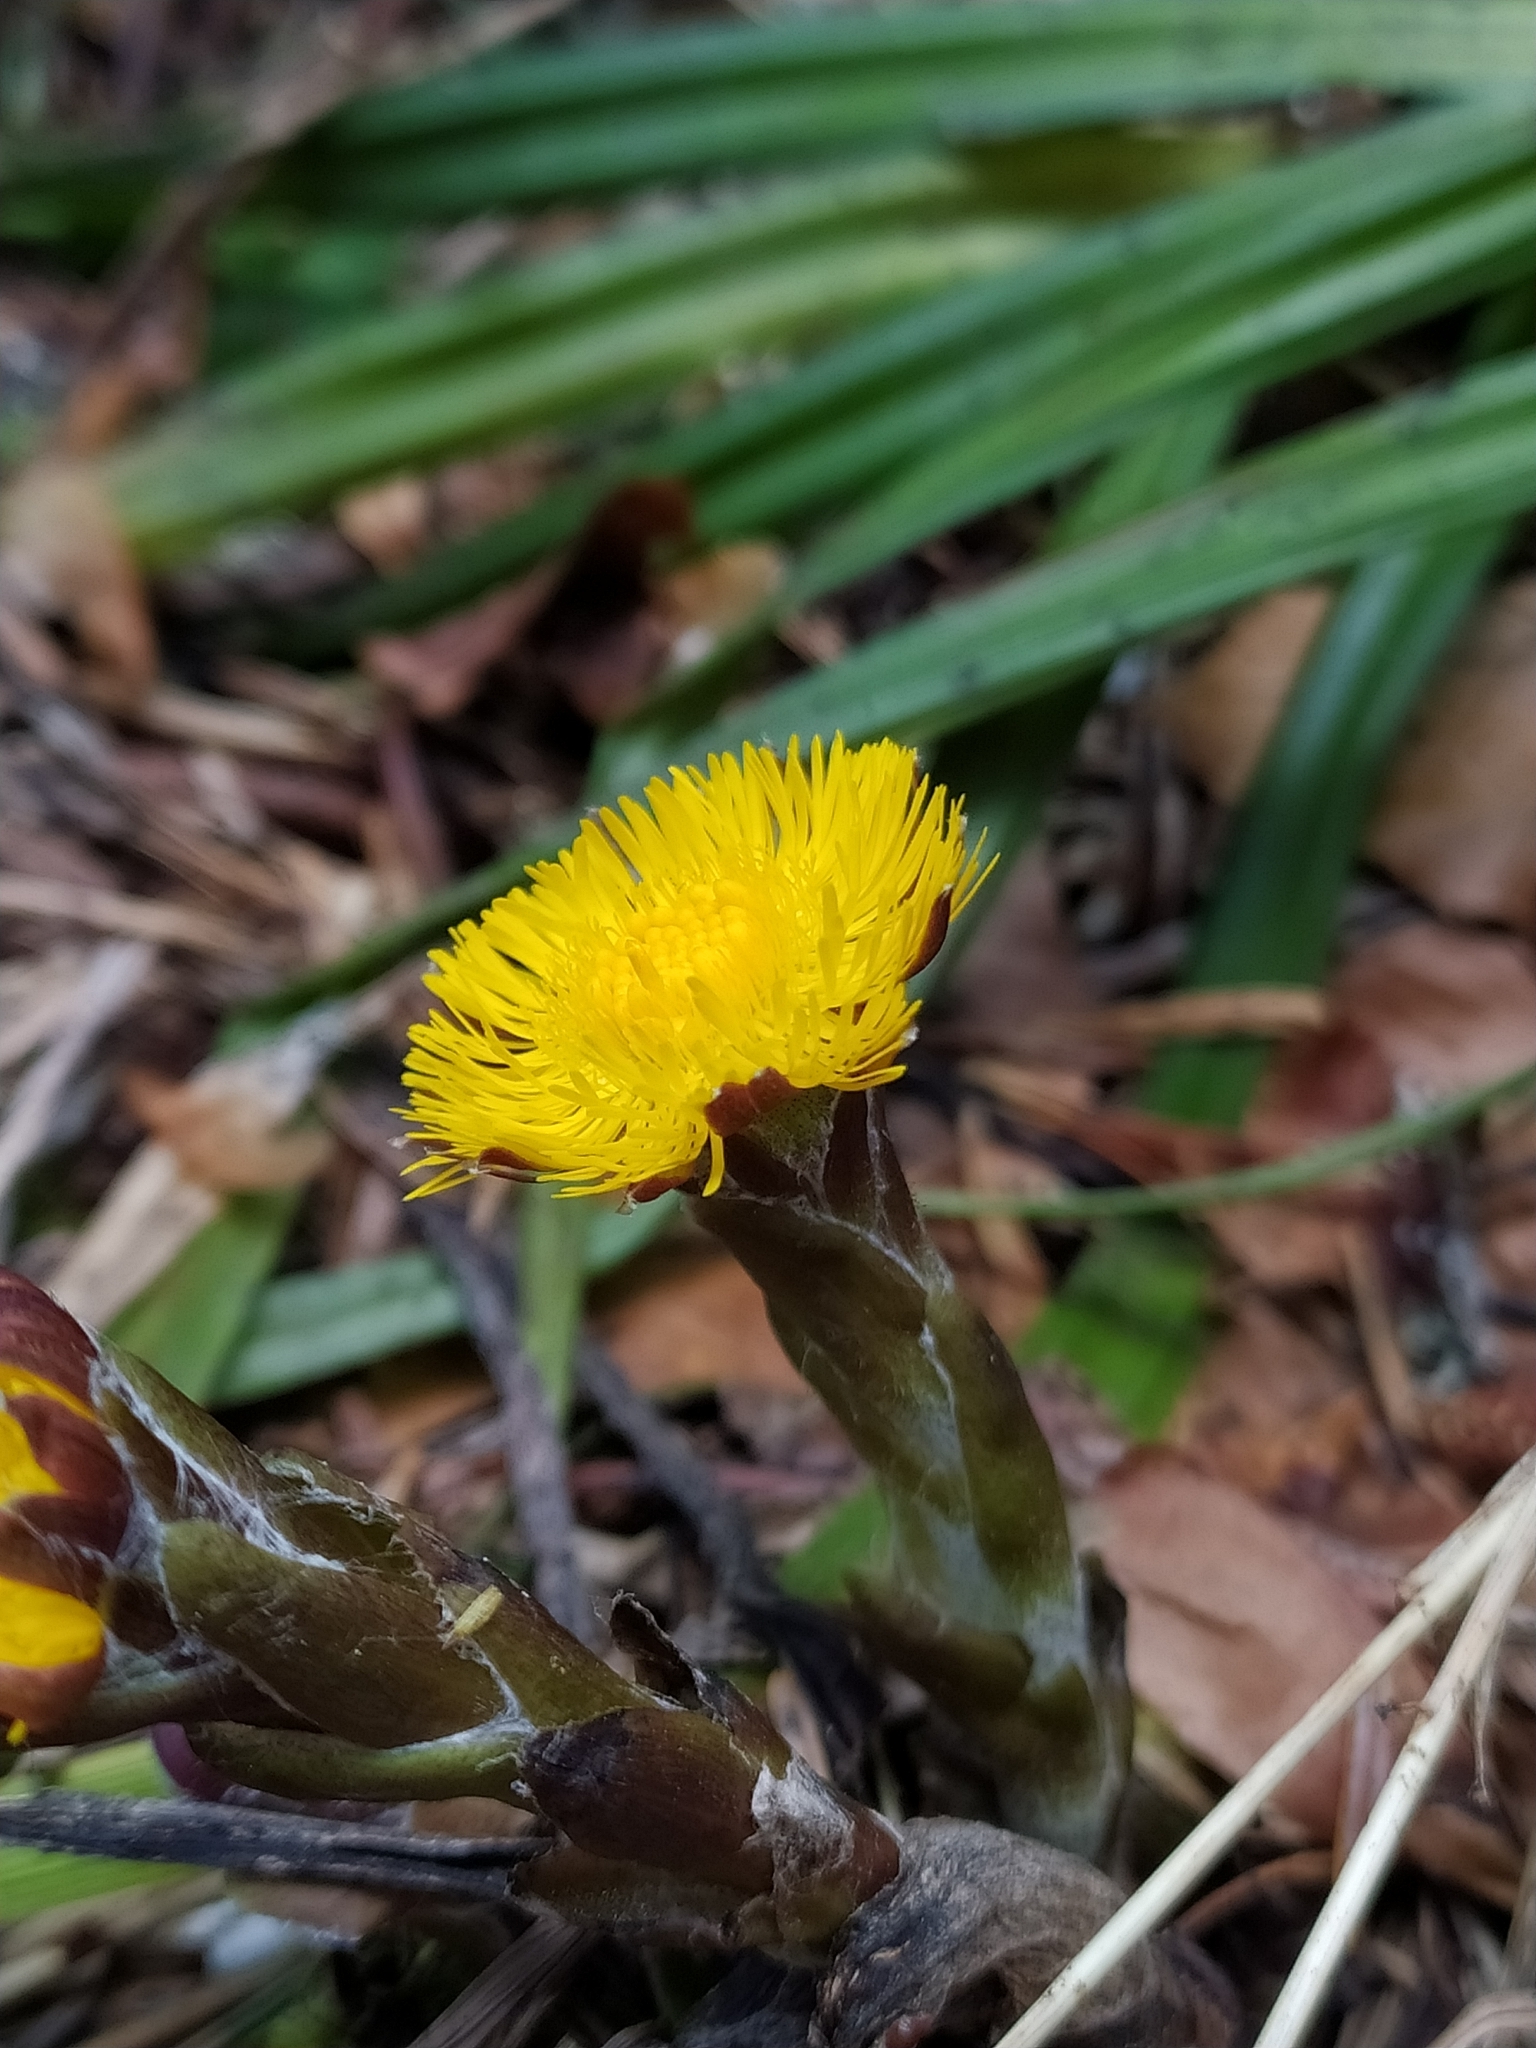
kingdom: Plantae
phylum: Tracheophyta
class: Magnoliopsida
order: Asterales
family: Asteraceae
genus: Tussilago
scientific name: Tussilago farfara
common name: Coltsfoot
